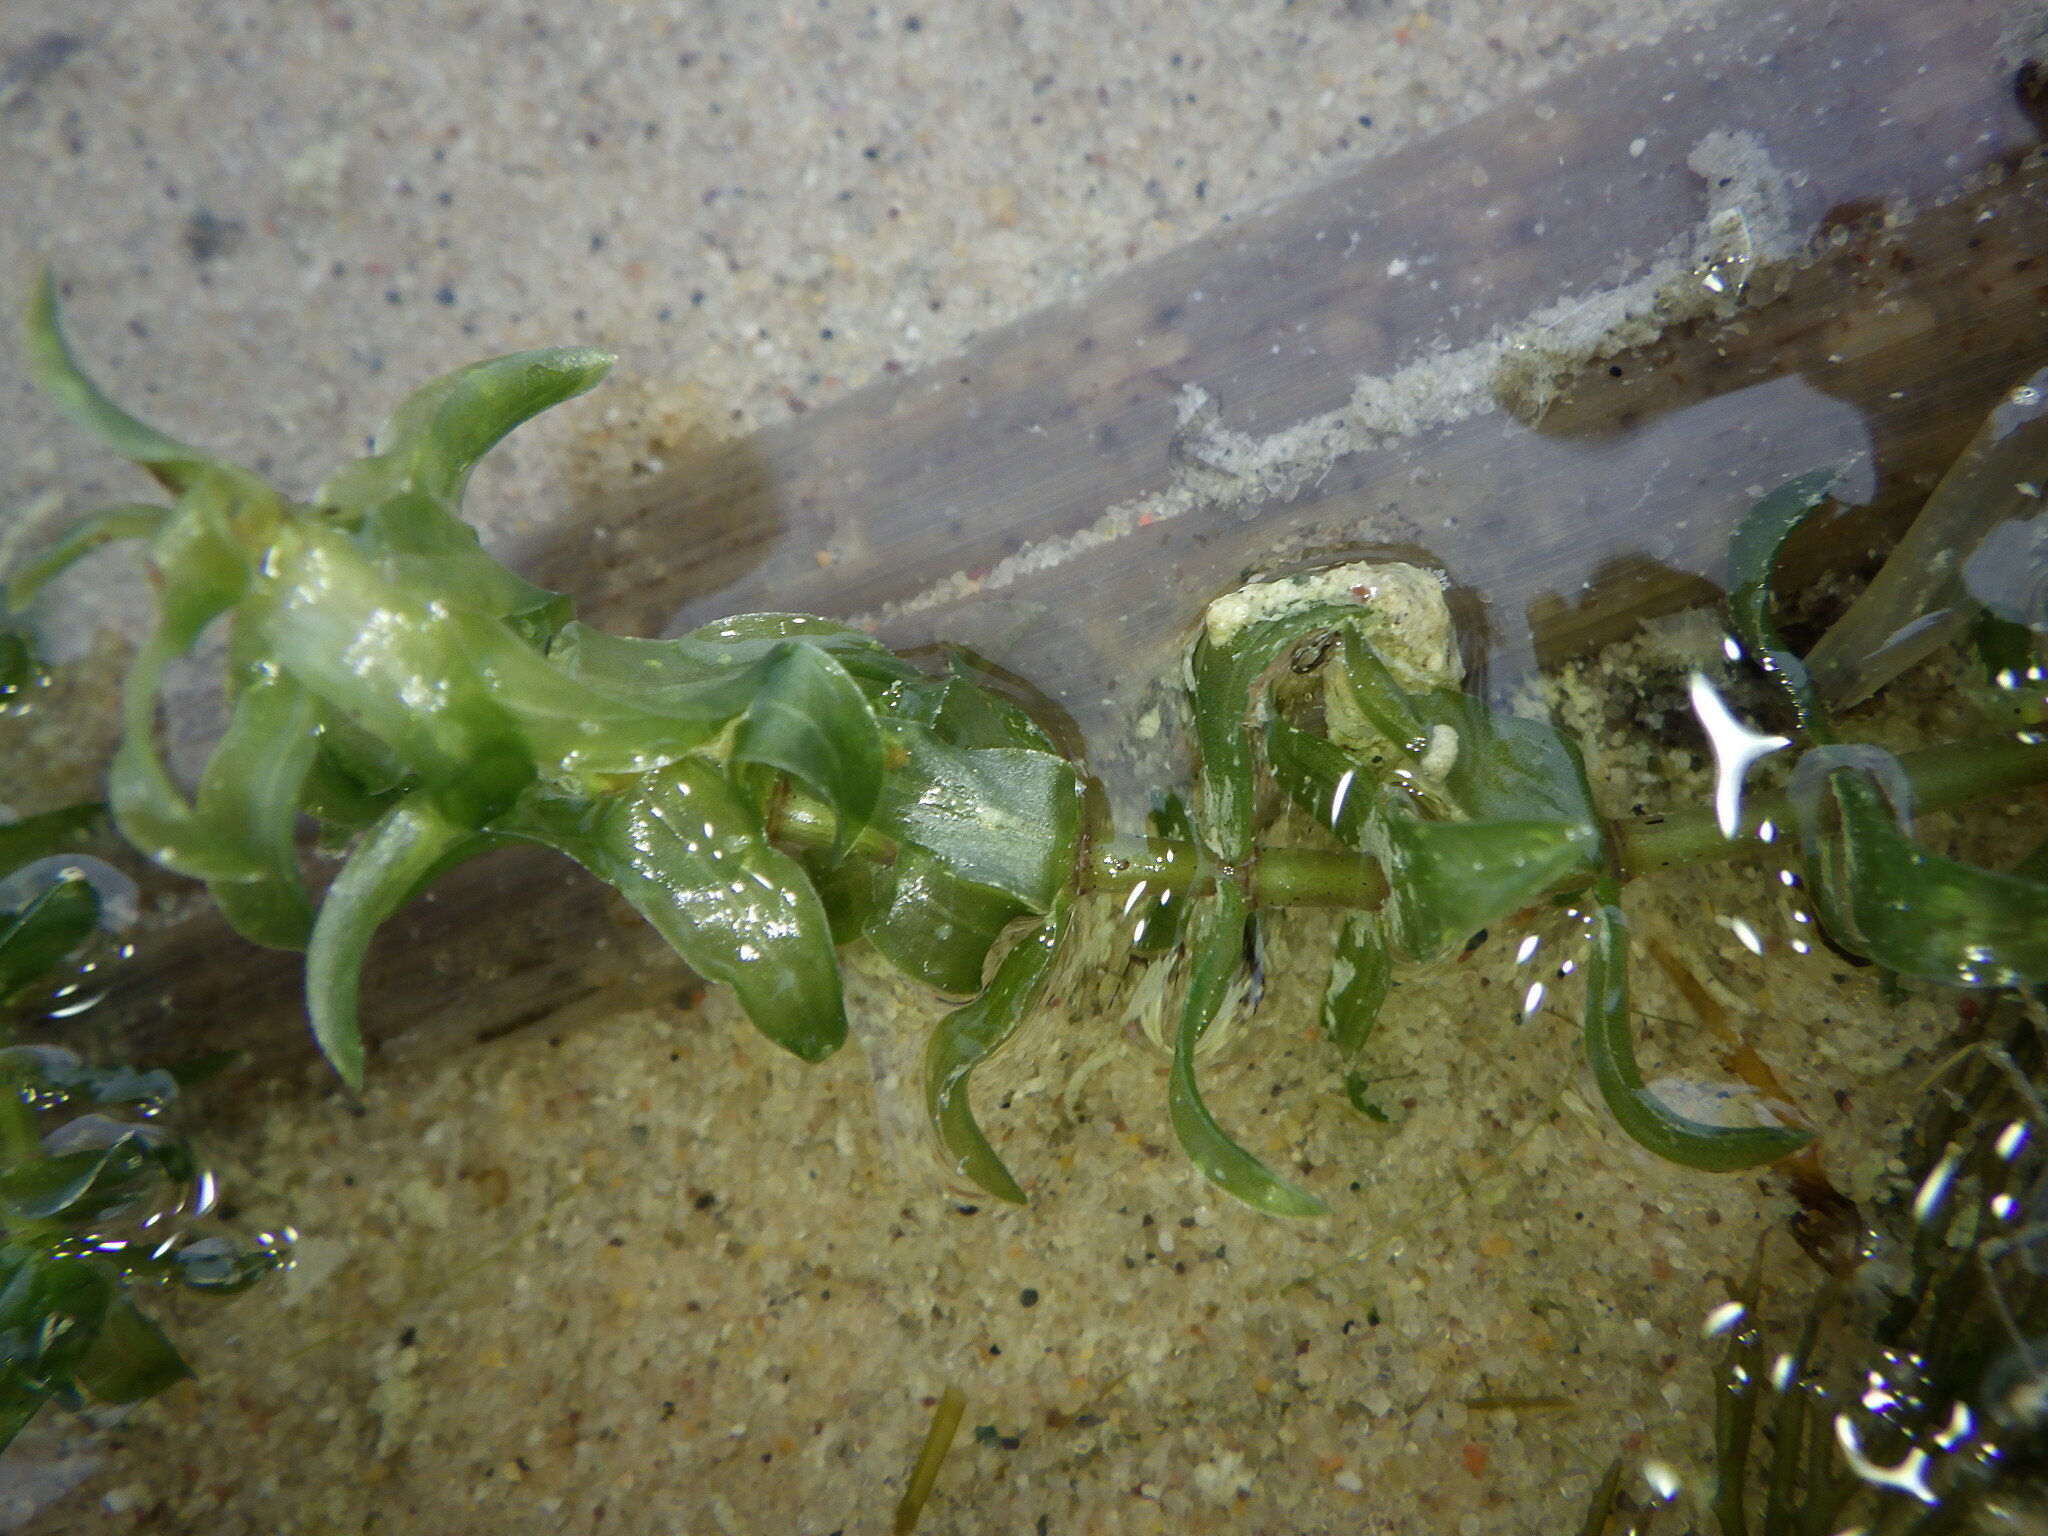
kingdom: Plantae
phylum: Tracheophyta
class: Liliopsida
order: Alismatales
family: Hydrocharitaceae
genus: Elodea
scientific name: Elodea canadensis
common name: Canadian waterweed
